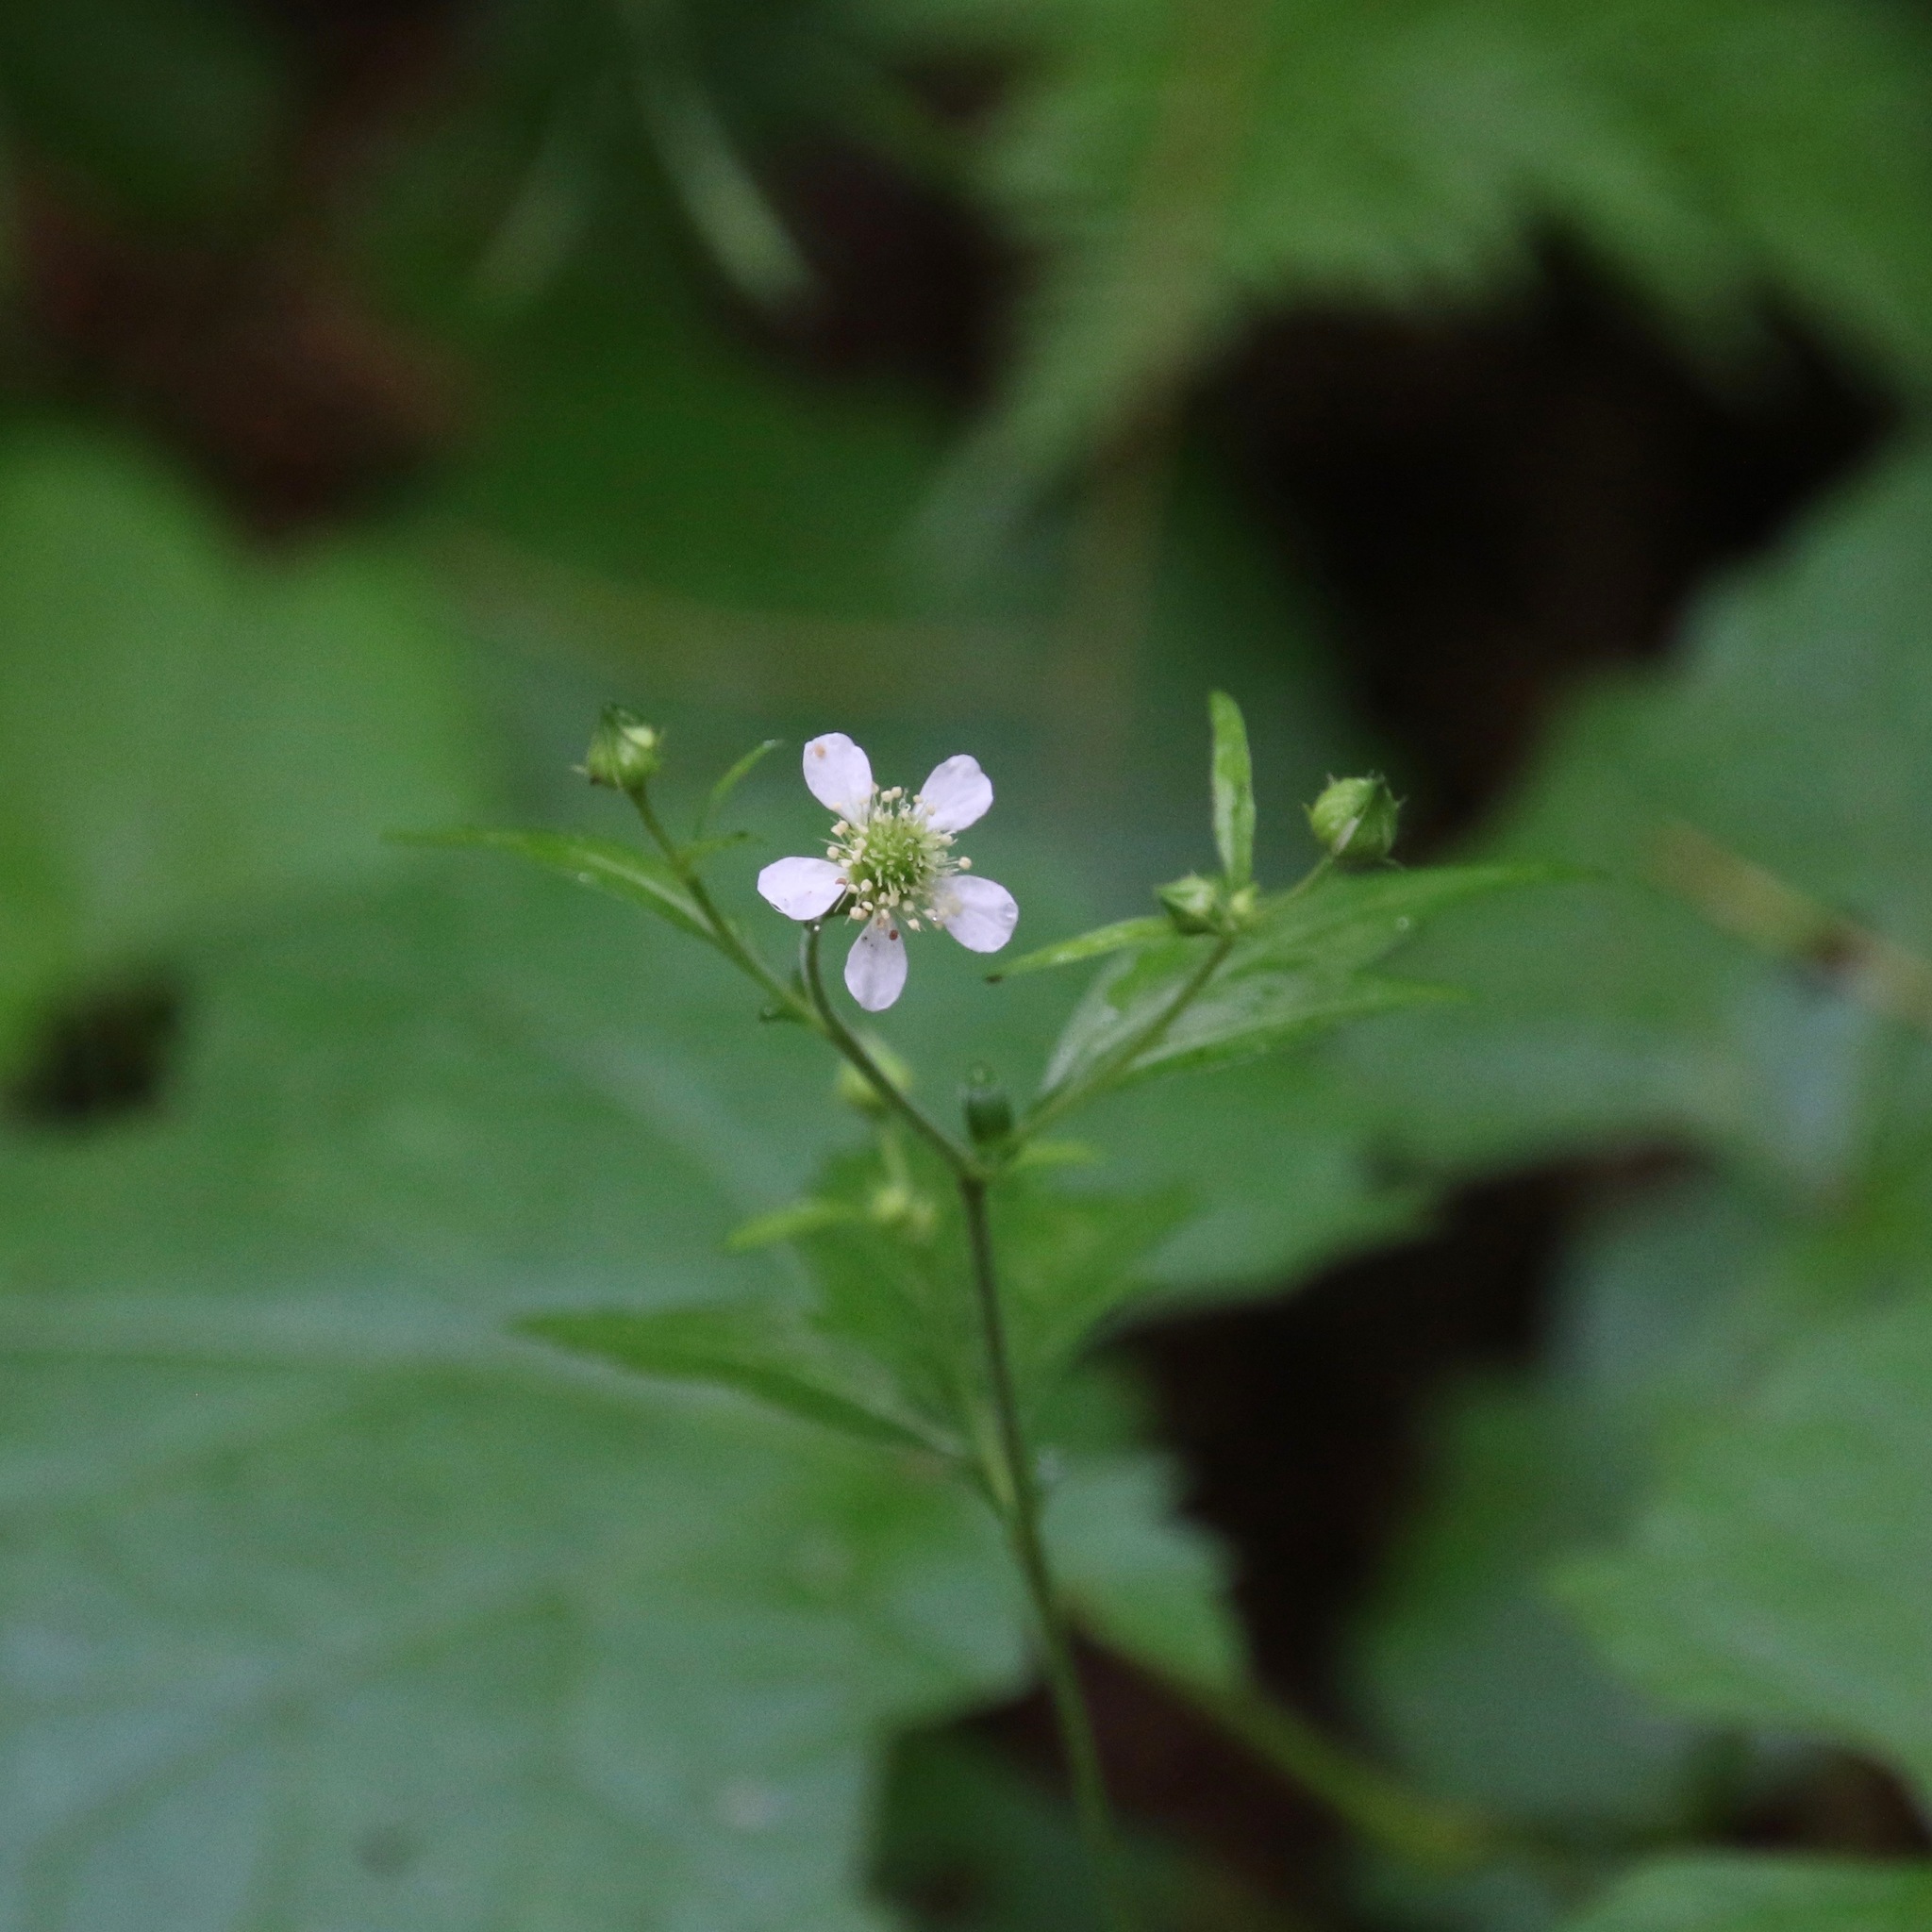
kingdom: Plantae
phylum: Tracheophyta
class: Magnoliopsida
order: Rosales
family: Rosaceae
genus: Geum
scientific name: Geum canadense
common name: White avens
